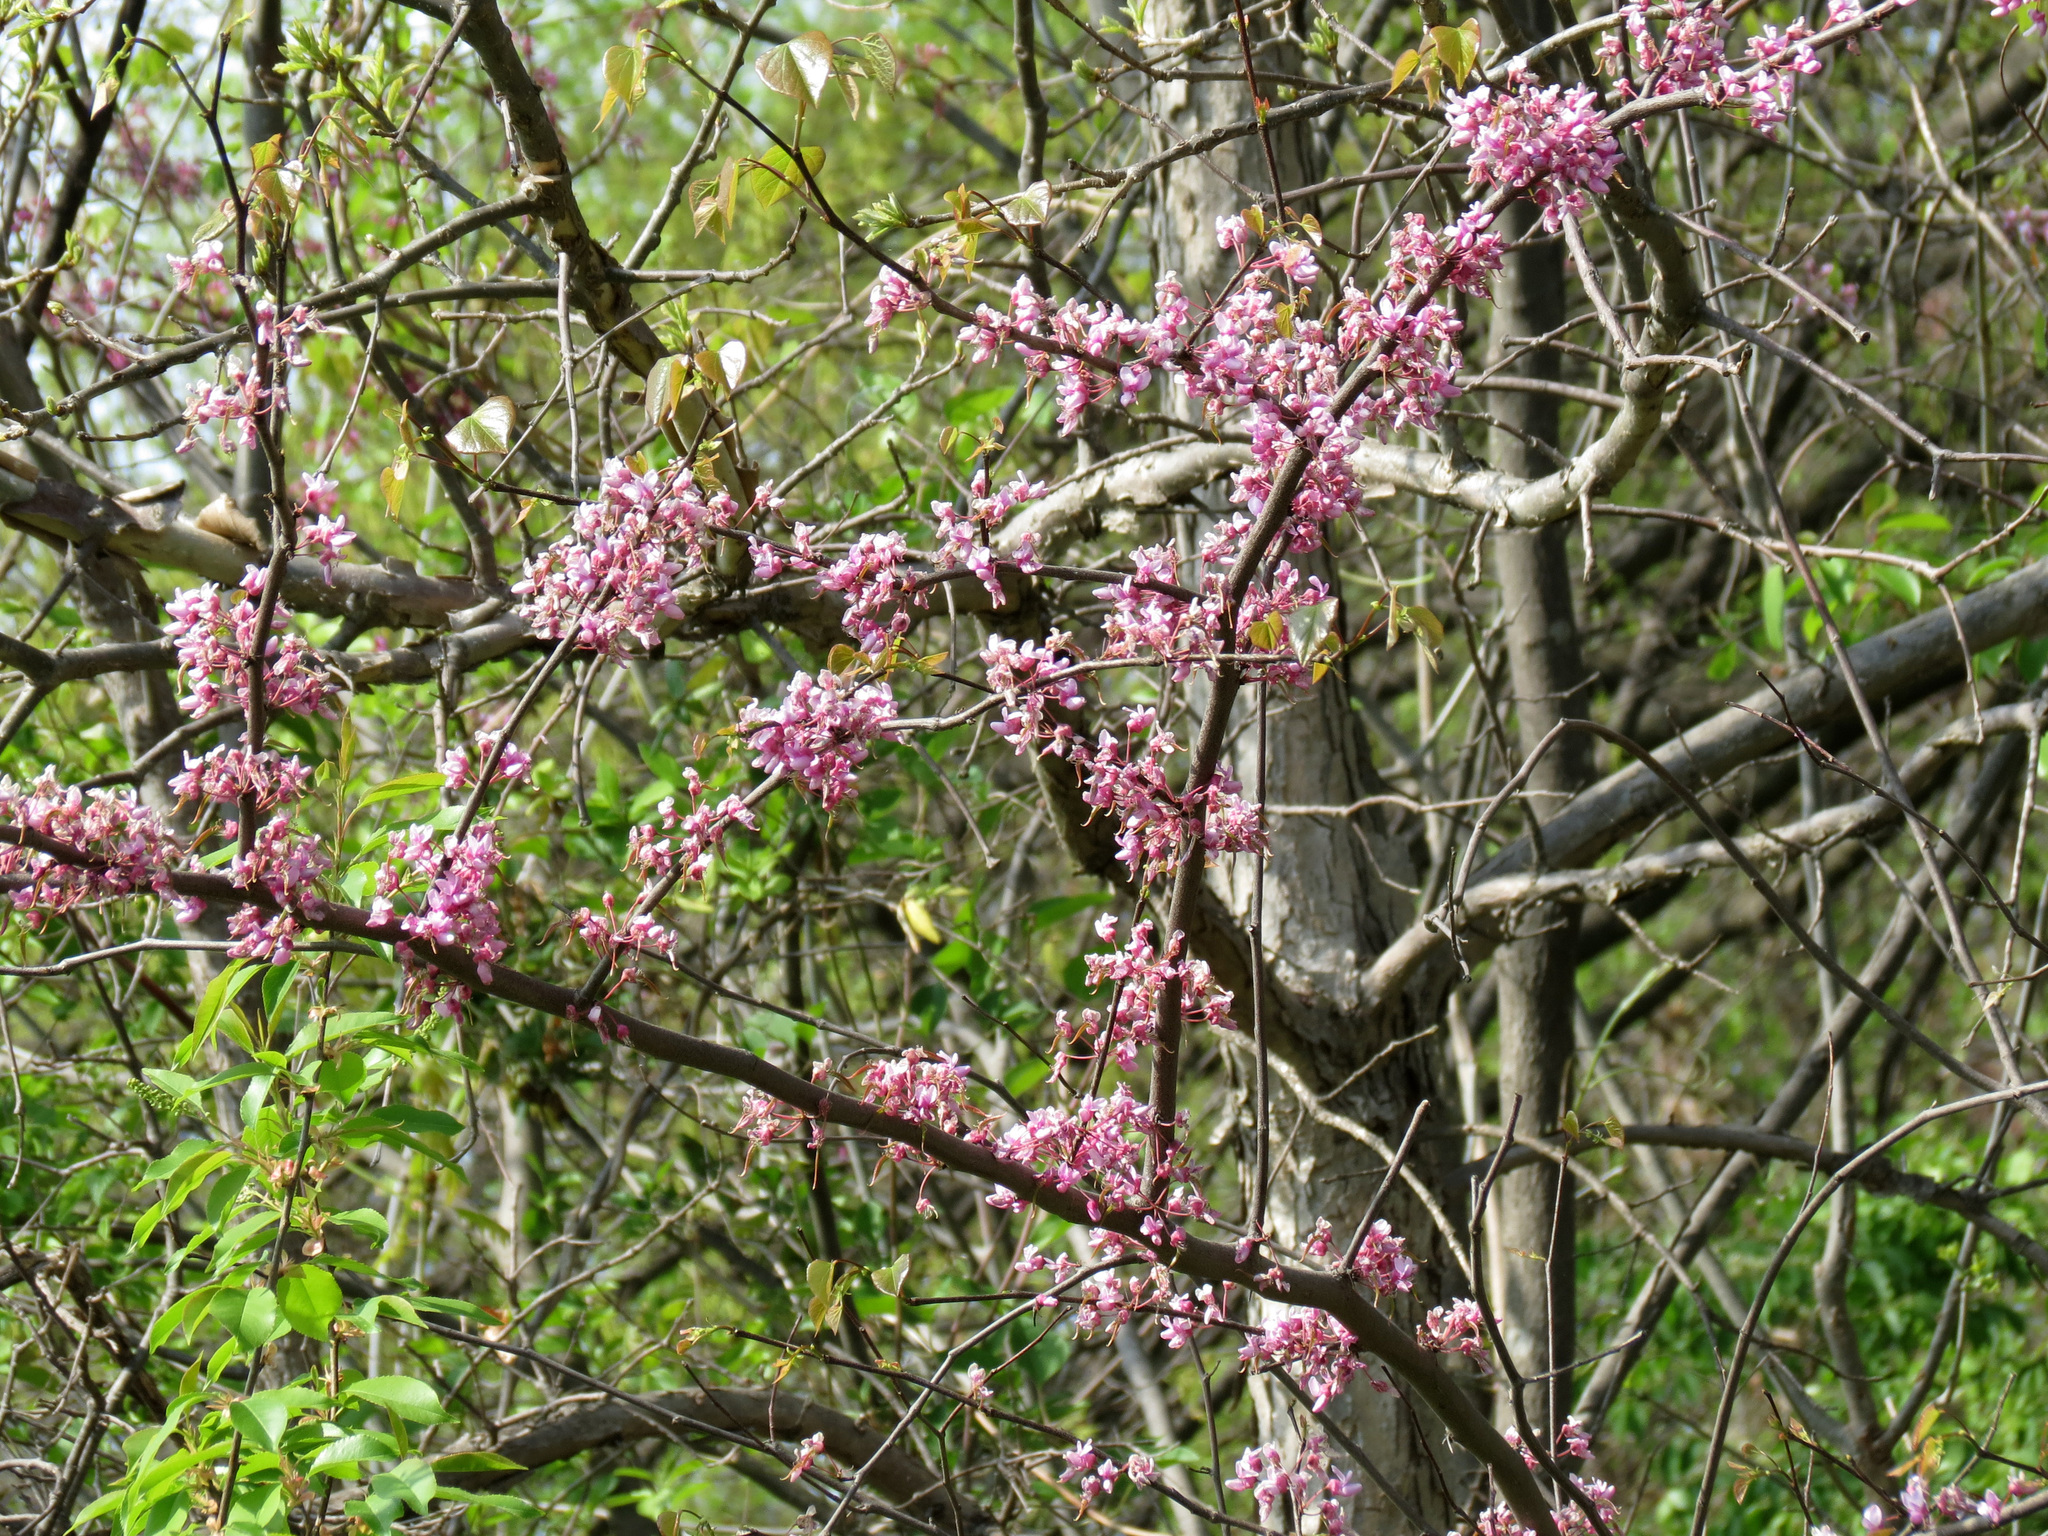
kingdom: Plantae
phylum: Tracheophyta
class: Magnoliopsida
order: Fabales
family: Fabaceae
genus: Cercis
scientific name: Cercis canadensis
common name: Eastern redbud
